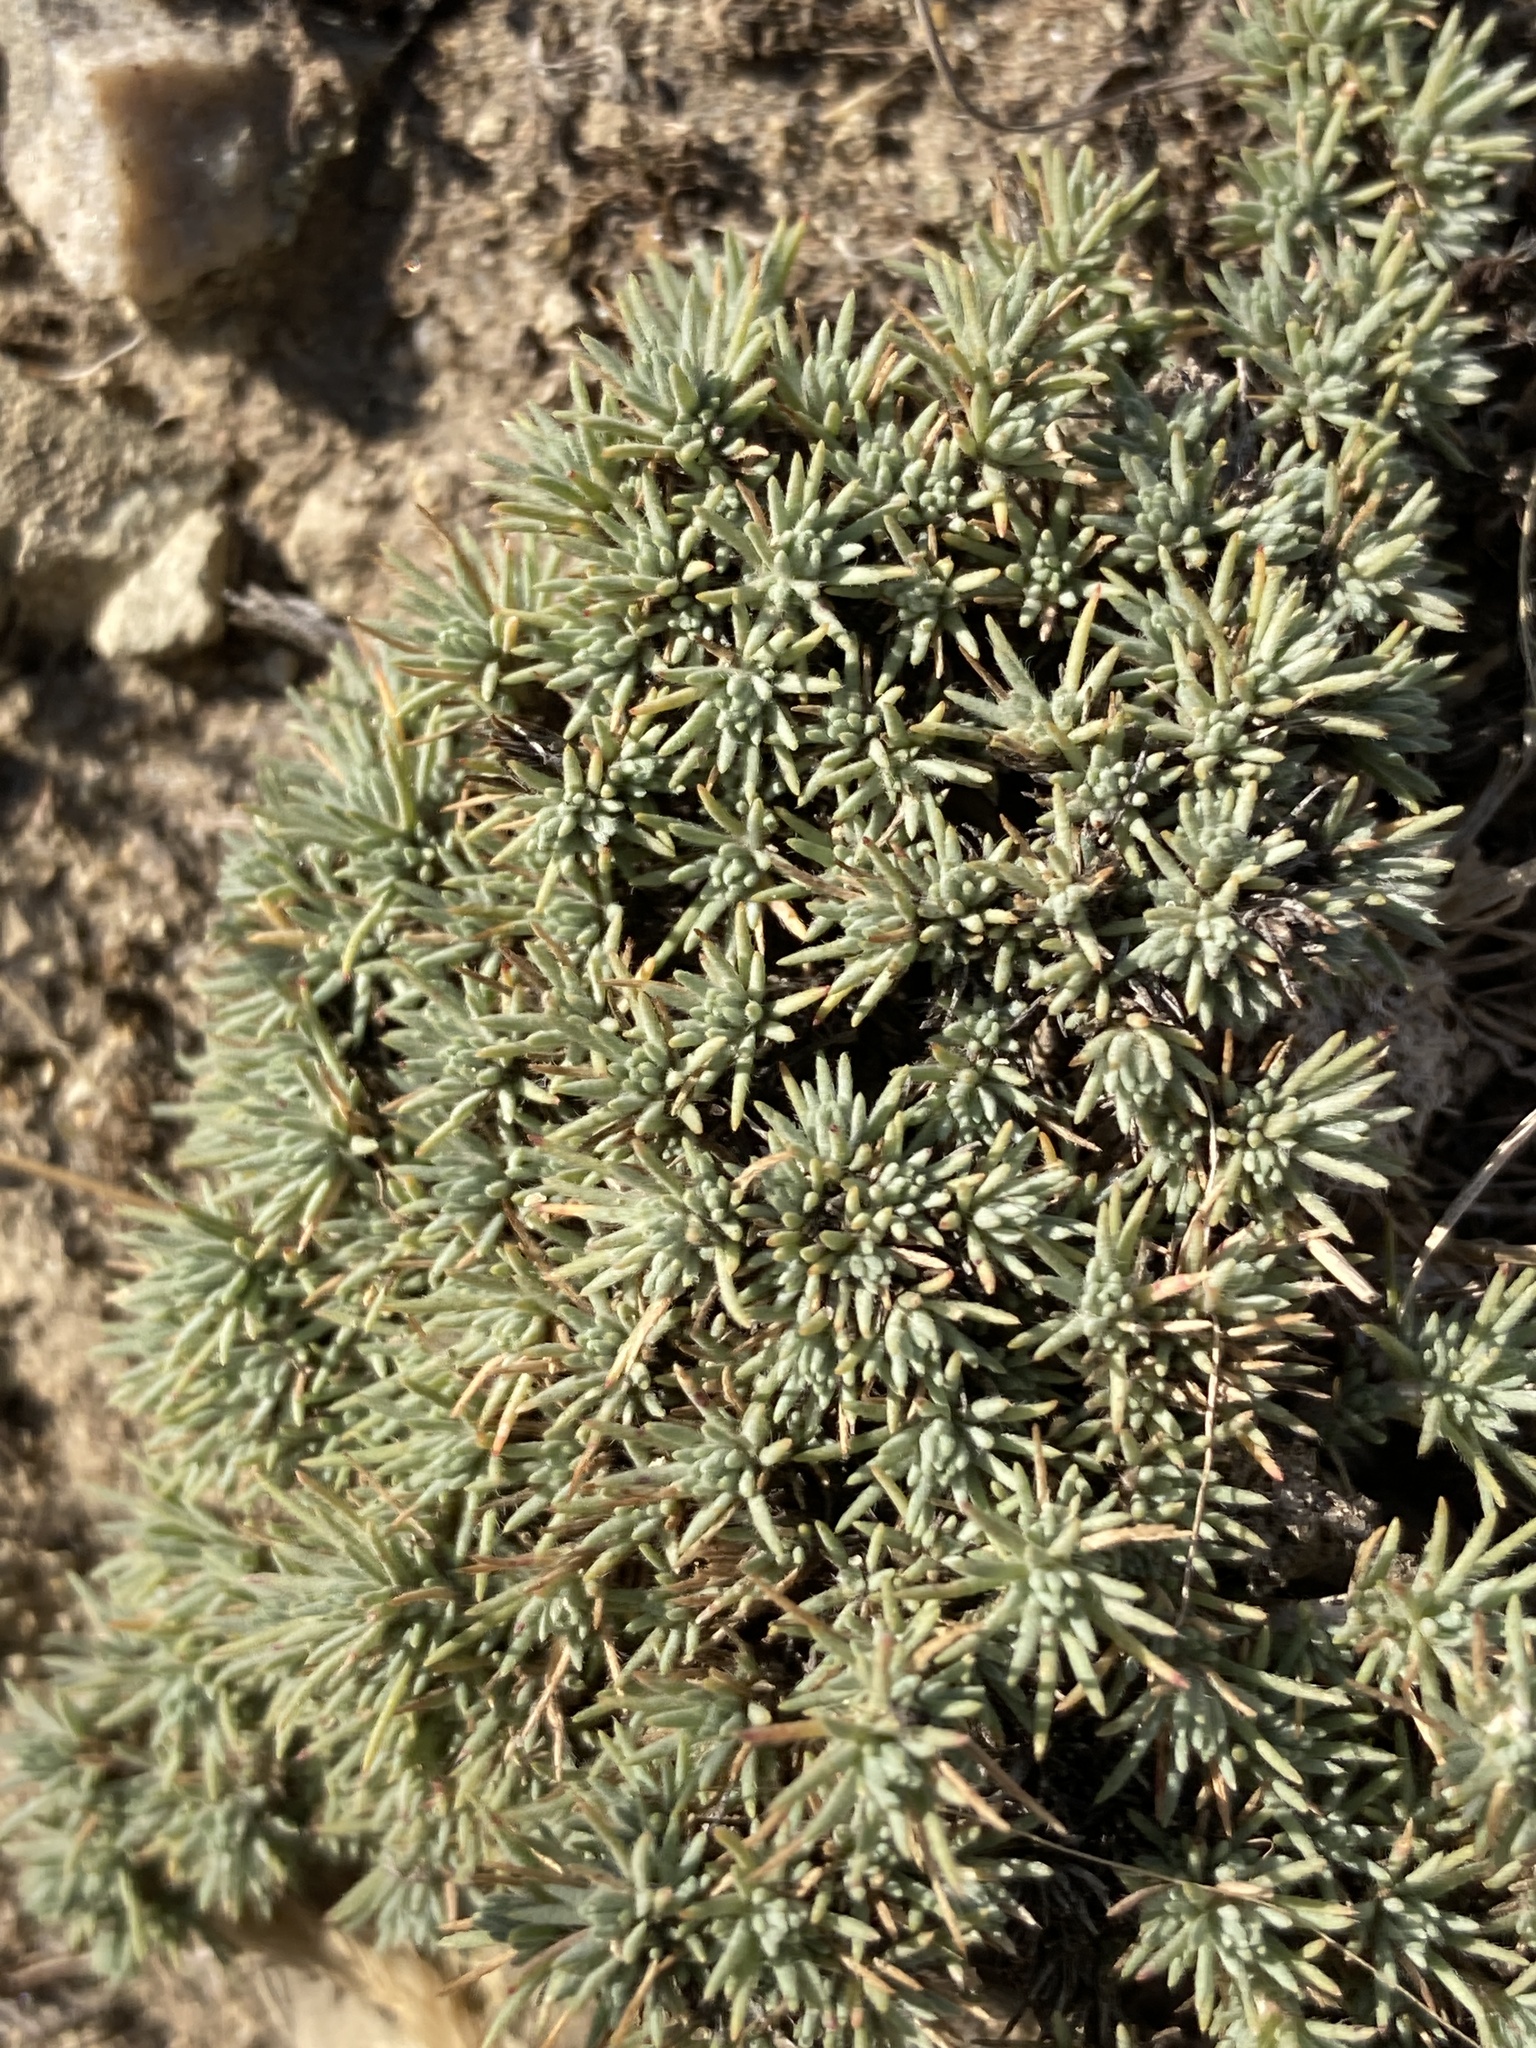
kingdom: Plantae
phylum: Tracheophyta
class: Magnoliopsida
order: Caryophyllales
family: Amaranthaceae
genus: Bassia
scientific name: Bassia prostrata
